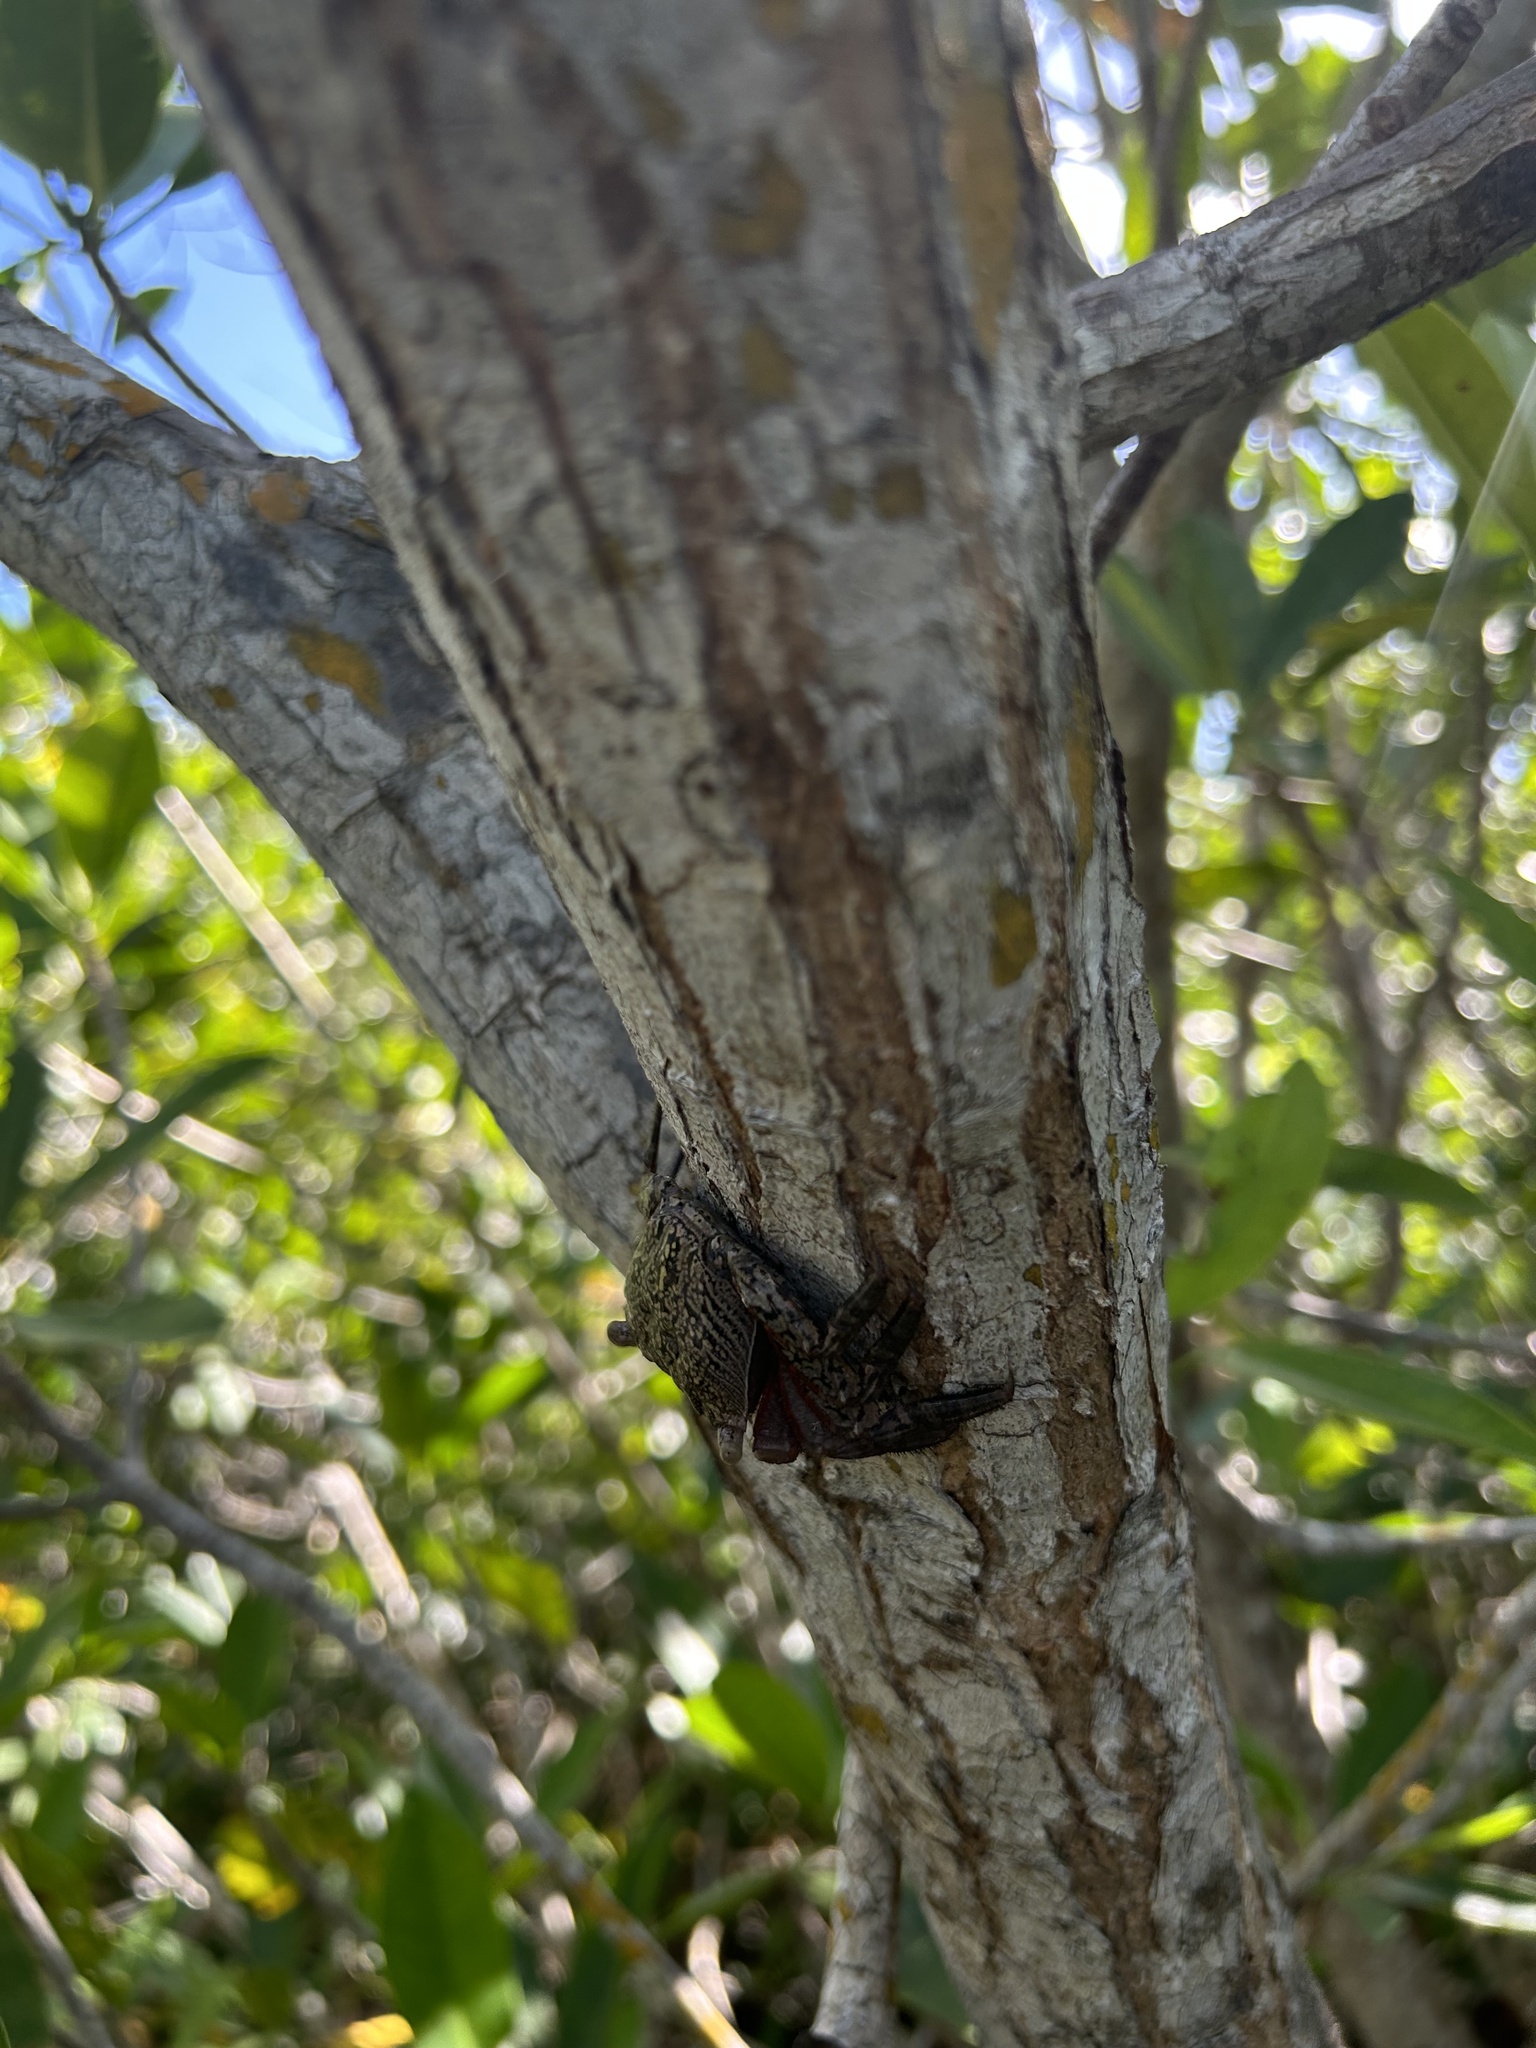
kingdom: Animalia
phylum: Arthropoda
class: Malacostraca
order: Decapoda
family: Sesarmidae
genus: Aratus
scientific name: Aratus pisonii
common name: Mangrove crab
